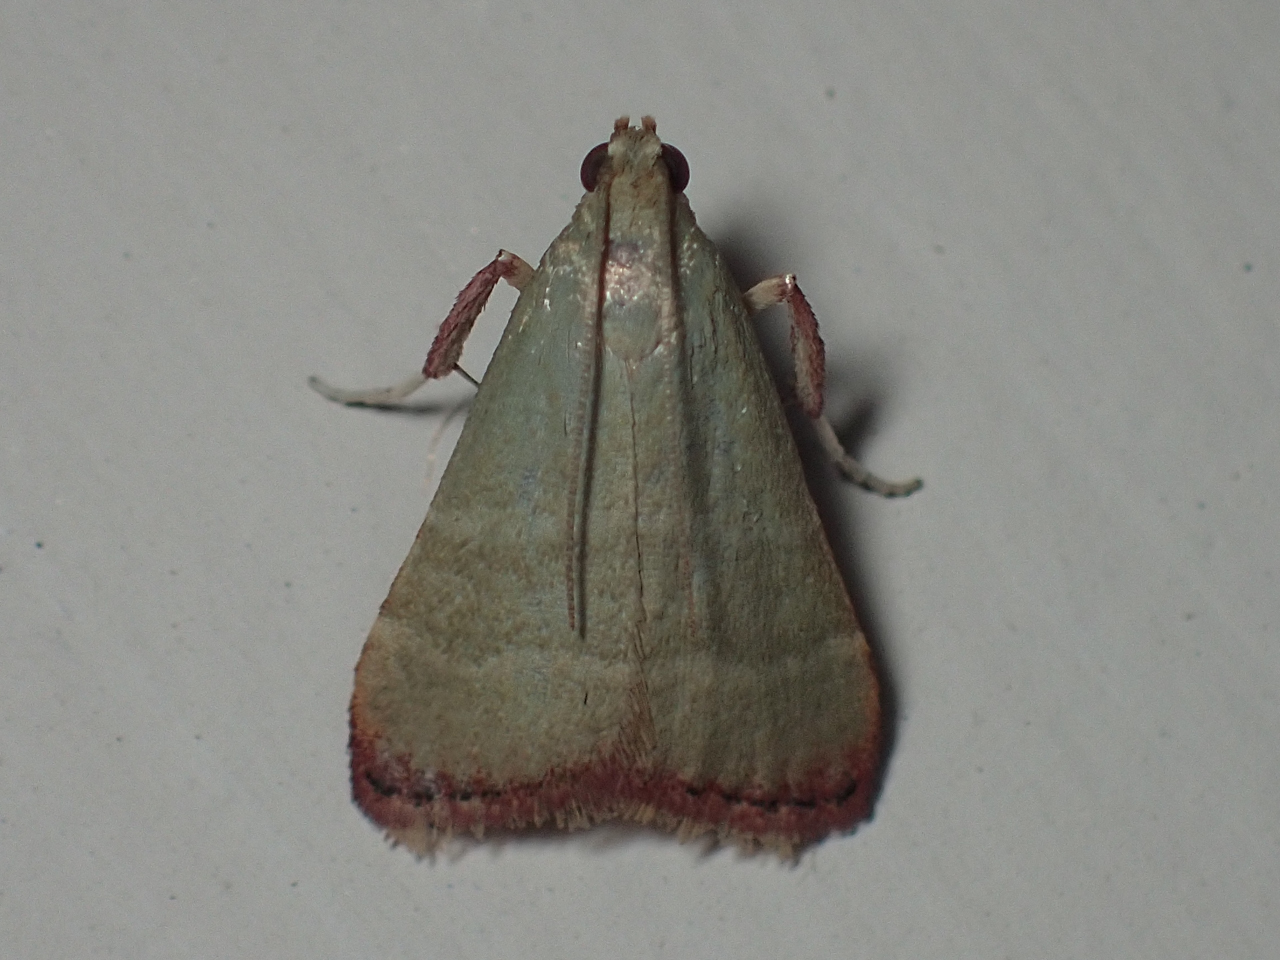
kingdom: Animalia
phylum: Arthropoda
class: Insecta
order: Lepidoptera
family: Pyralidae
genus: Arta
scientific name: Arta olivalis
